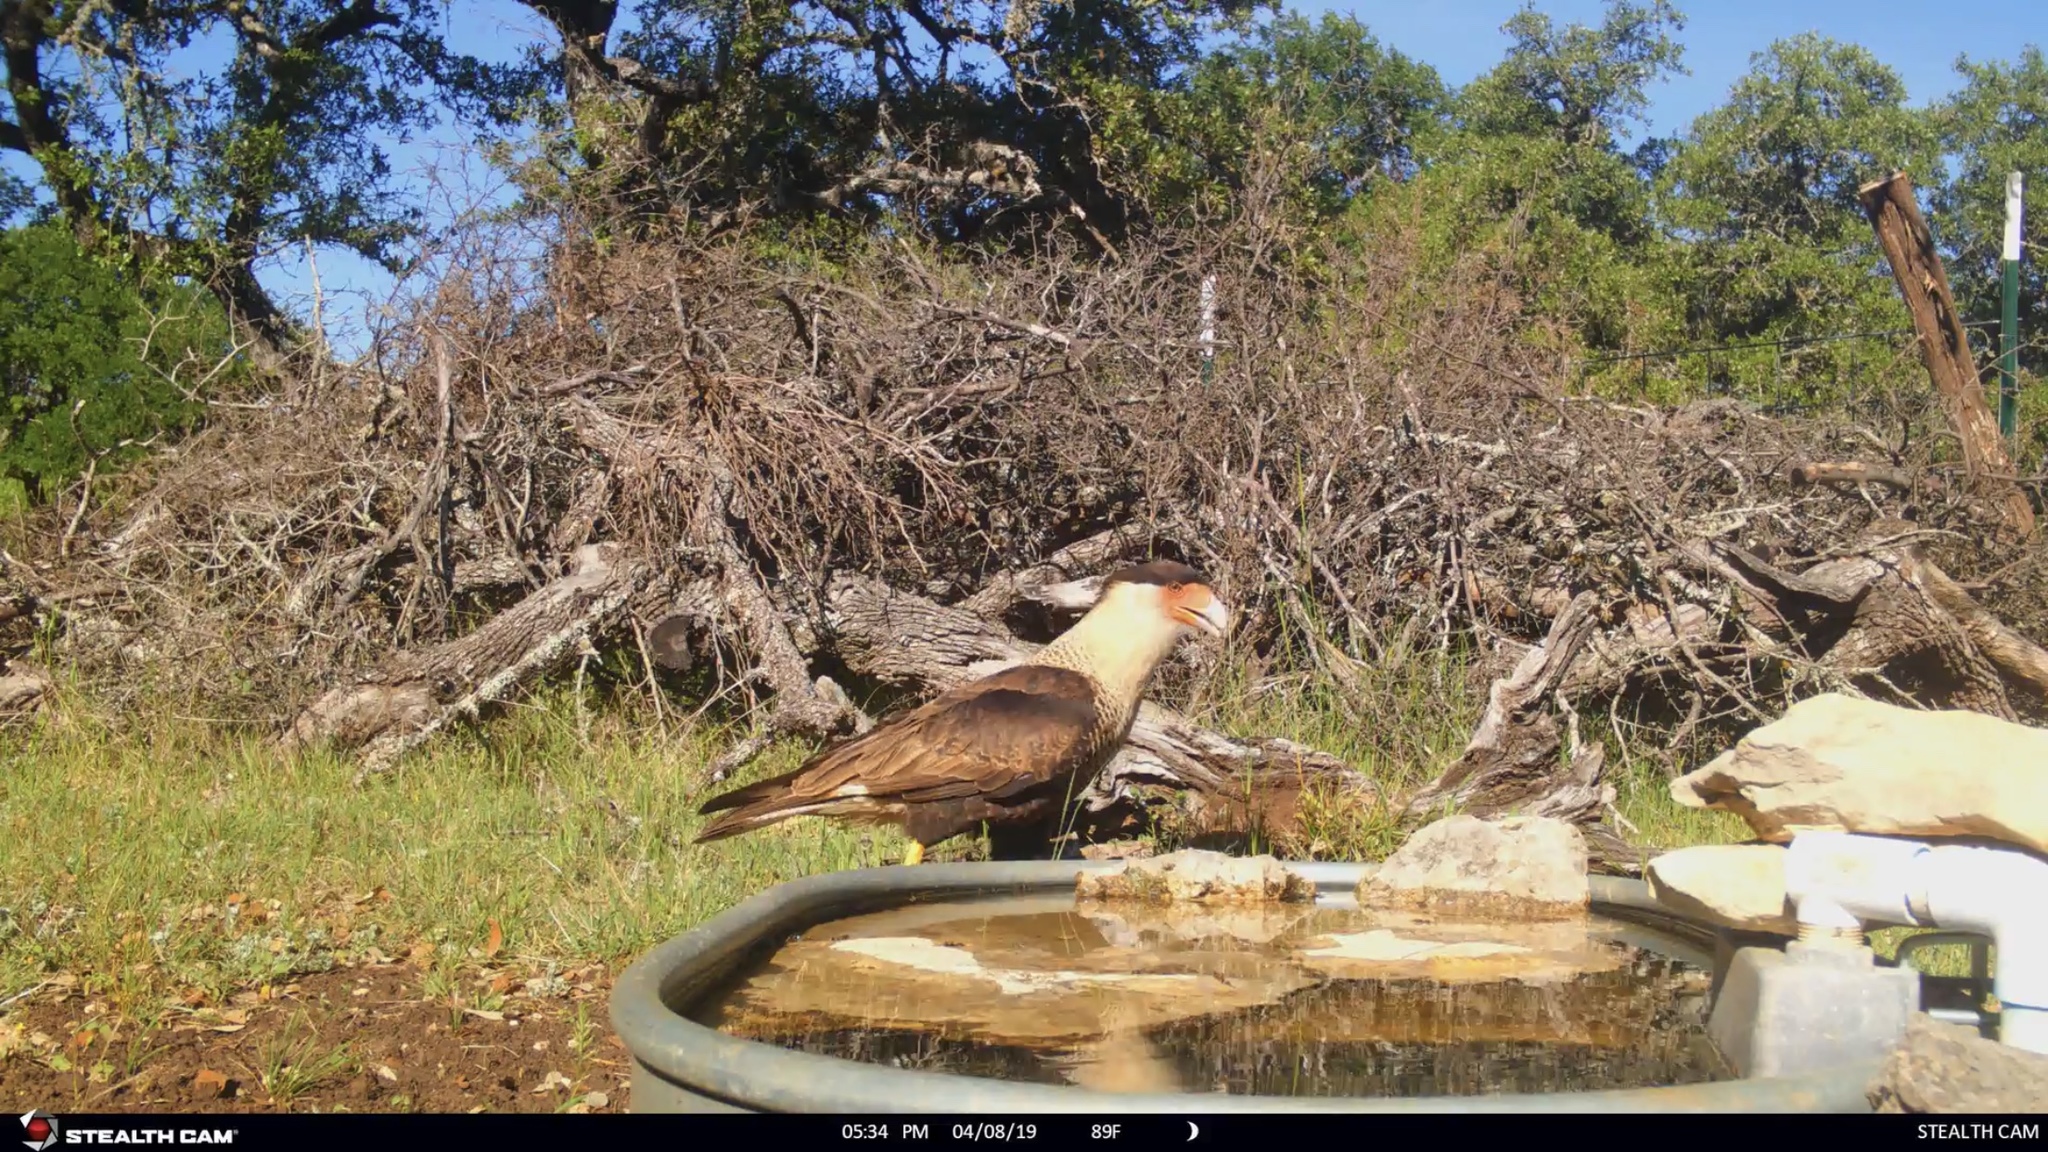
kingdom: Animalia
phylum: Chordata
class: Aves
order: Falconiformes
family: Falconidae
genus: Caracara
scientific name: Caracara plancus
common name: Southern caracara
